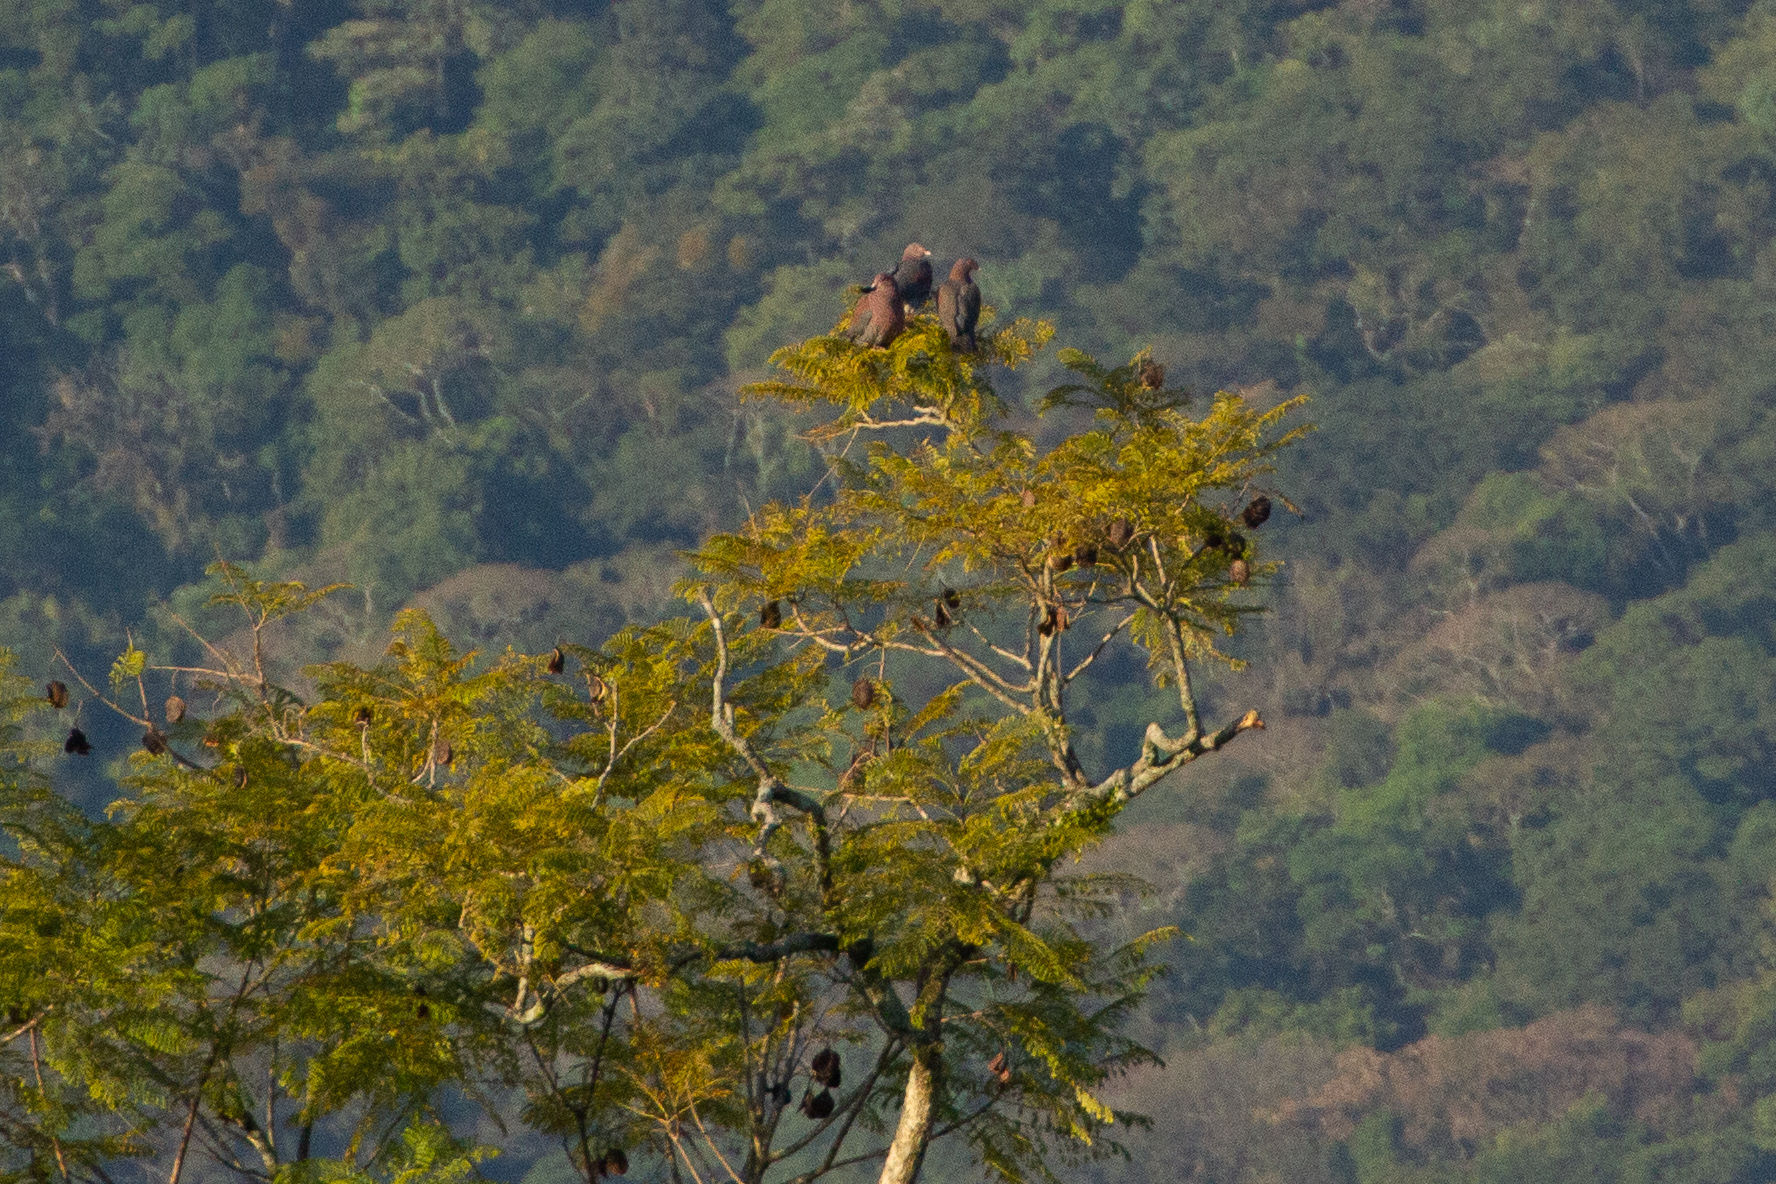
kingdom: Animalia
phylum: Chordata
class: Aves
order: Columbiformes
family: Columbidae
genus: Patagioenas
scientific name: Patagioenas flavirostris
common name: Red-billed pigeon
